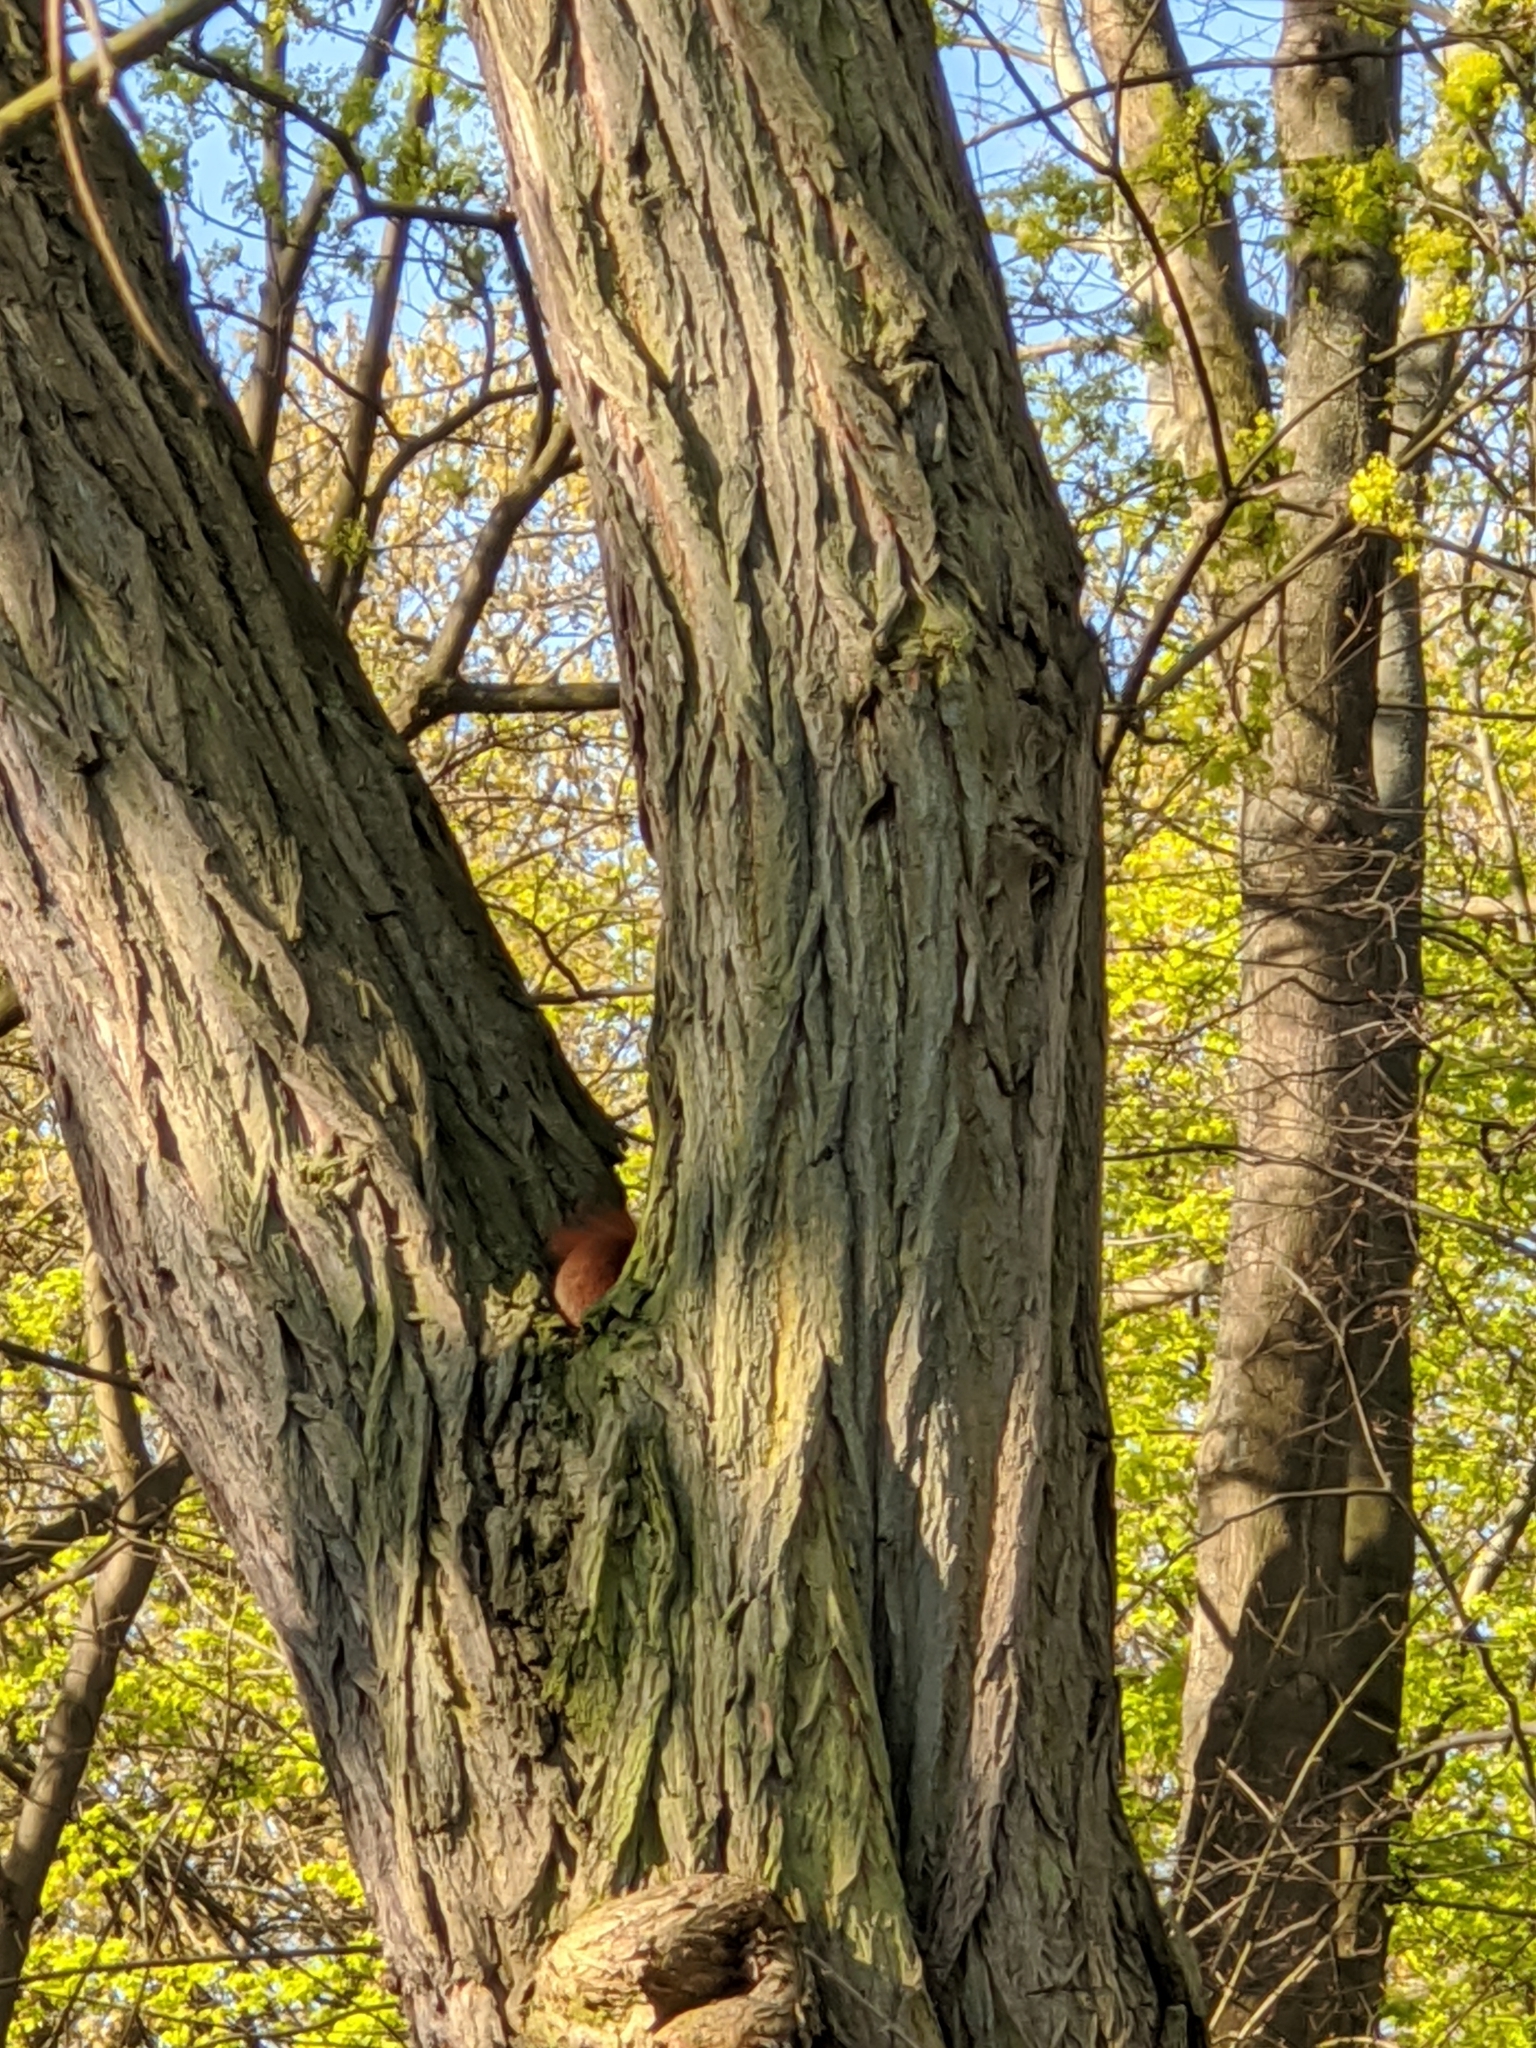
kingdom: Animalia
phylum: Chordata
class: Mammalia
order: Rodentia
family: Sciuridae
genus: Sciurus
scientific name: Sciurus vulgaris
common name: Eurasian red squirrel
